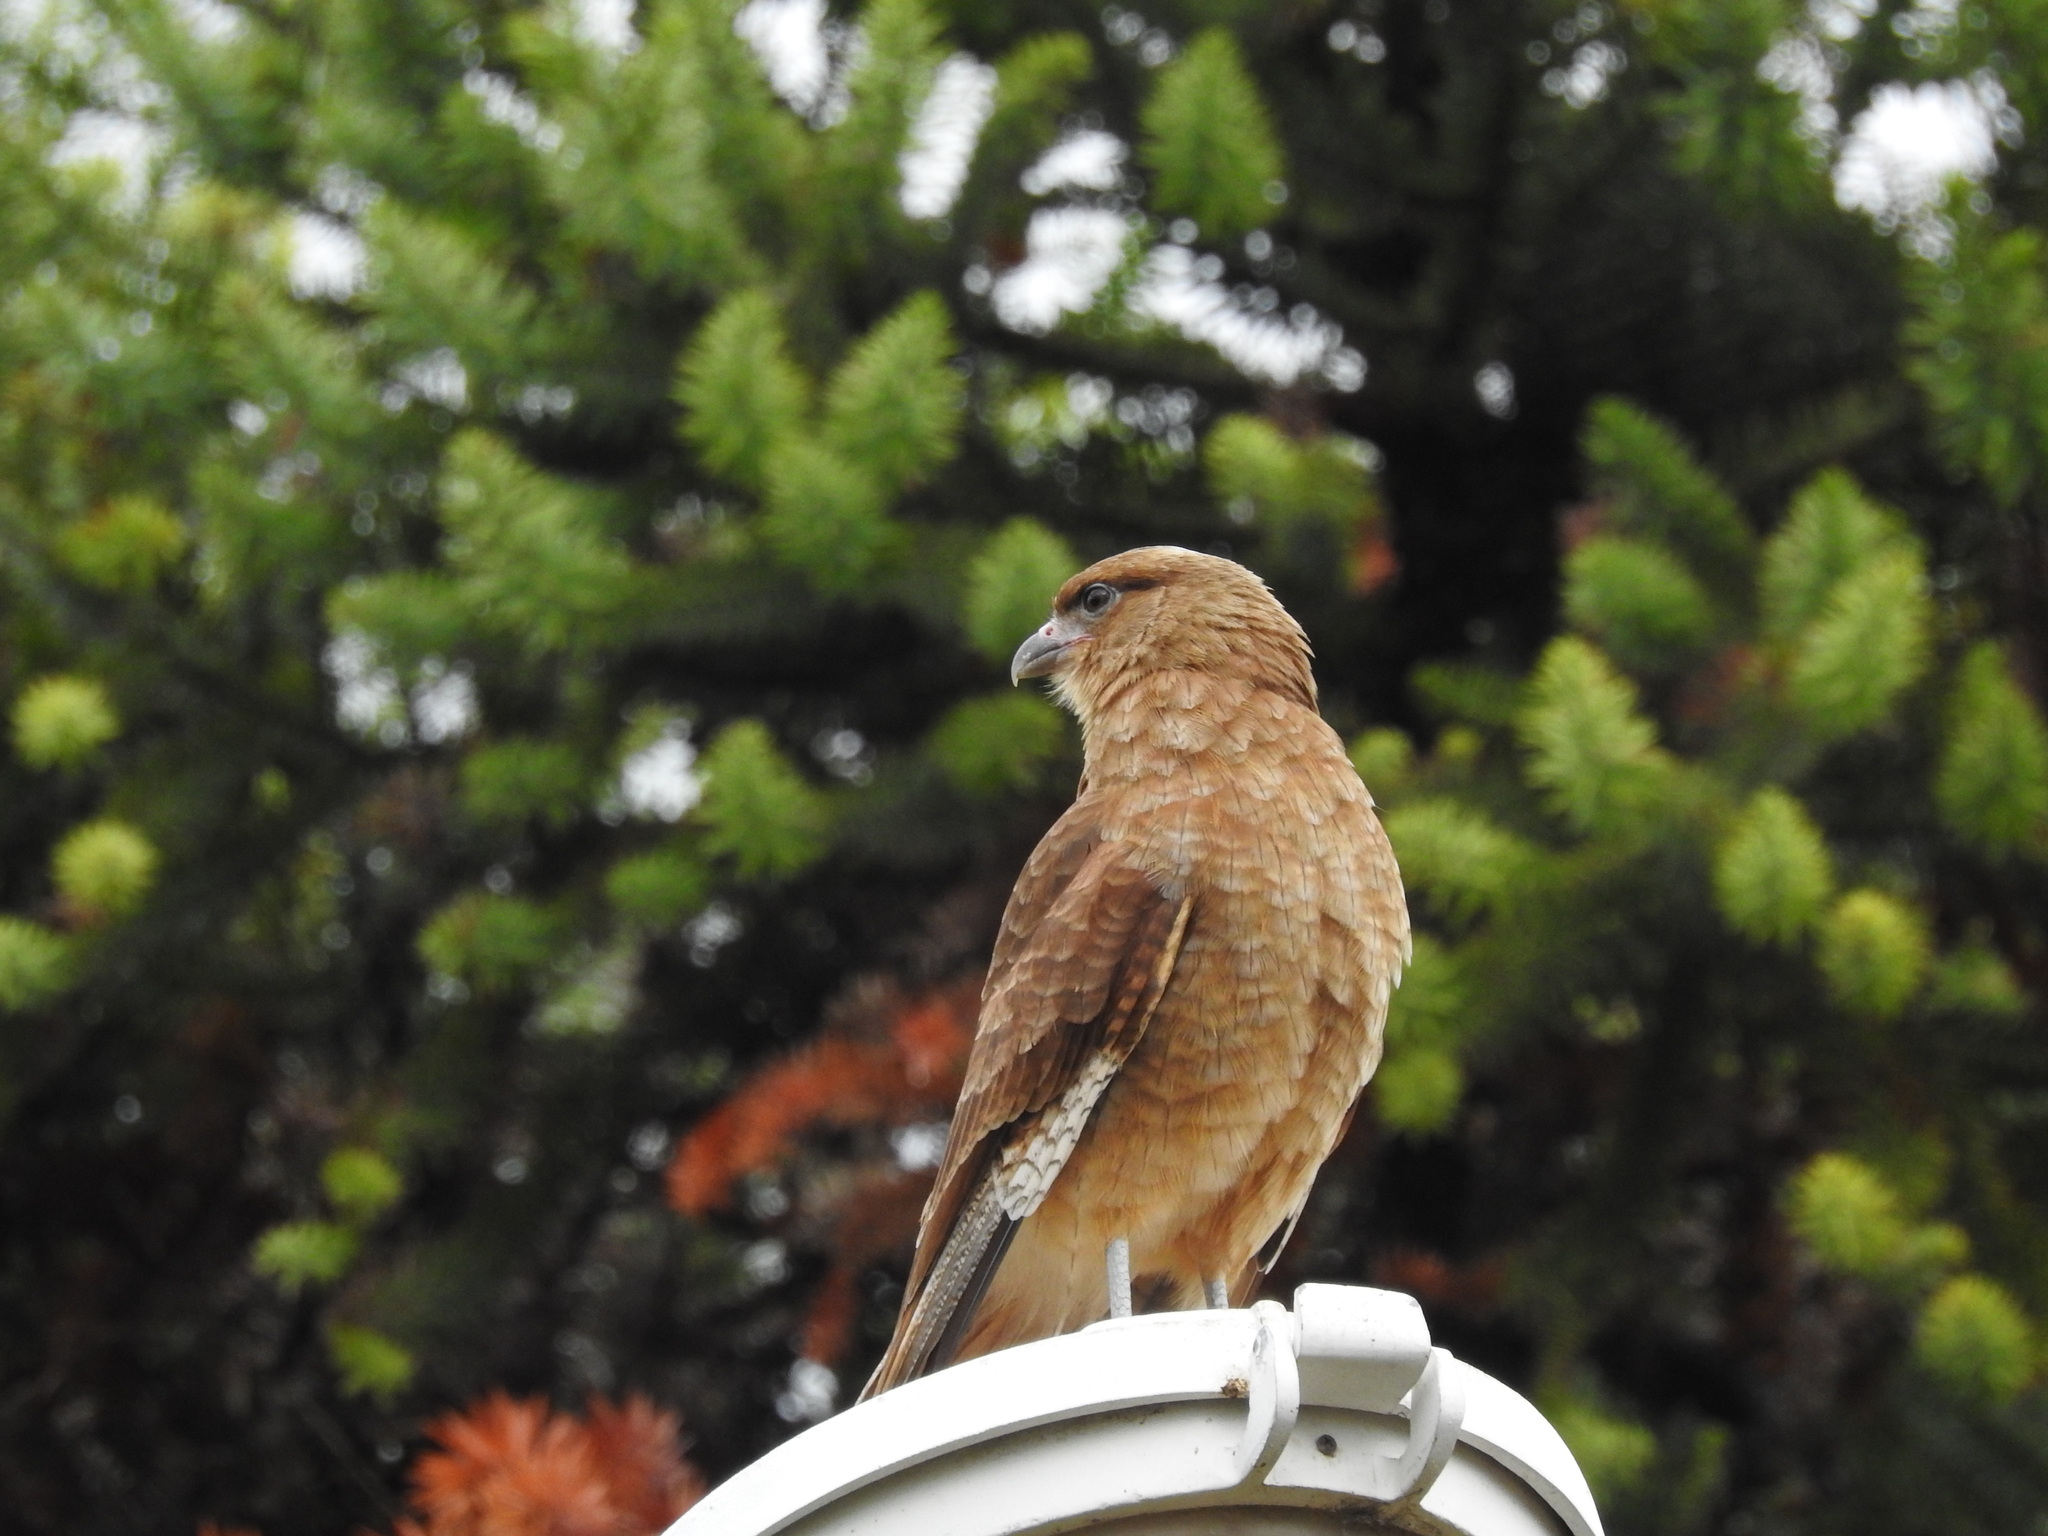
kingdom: Animalia
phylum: Chordata
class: Aves
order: Falconiformes
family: Falconidae
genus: Daptrius
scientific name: Daptrius
